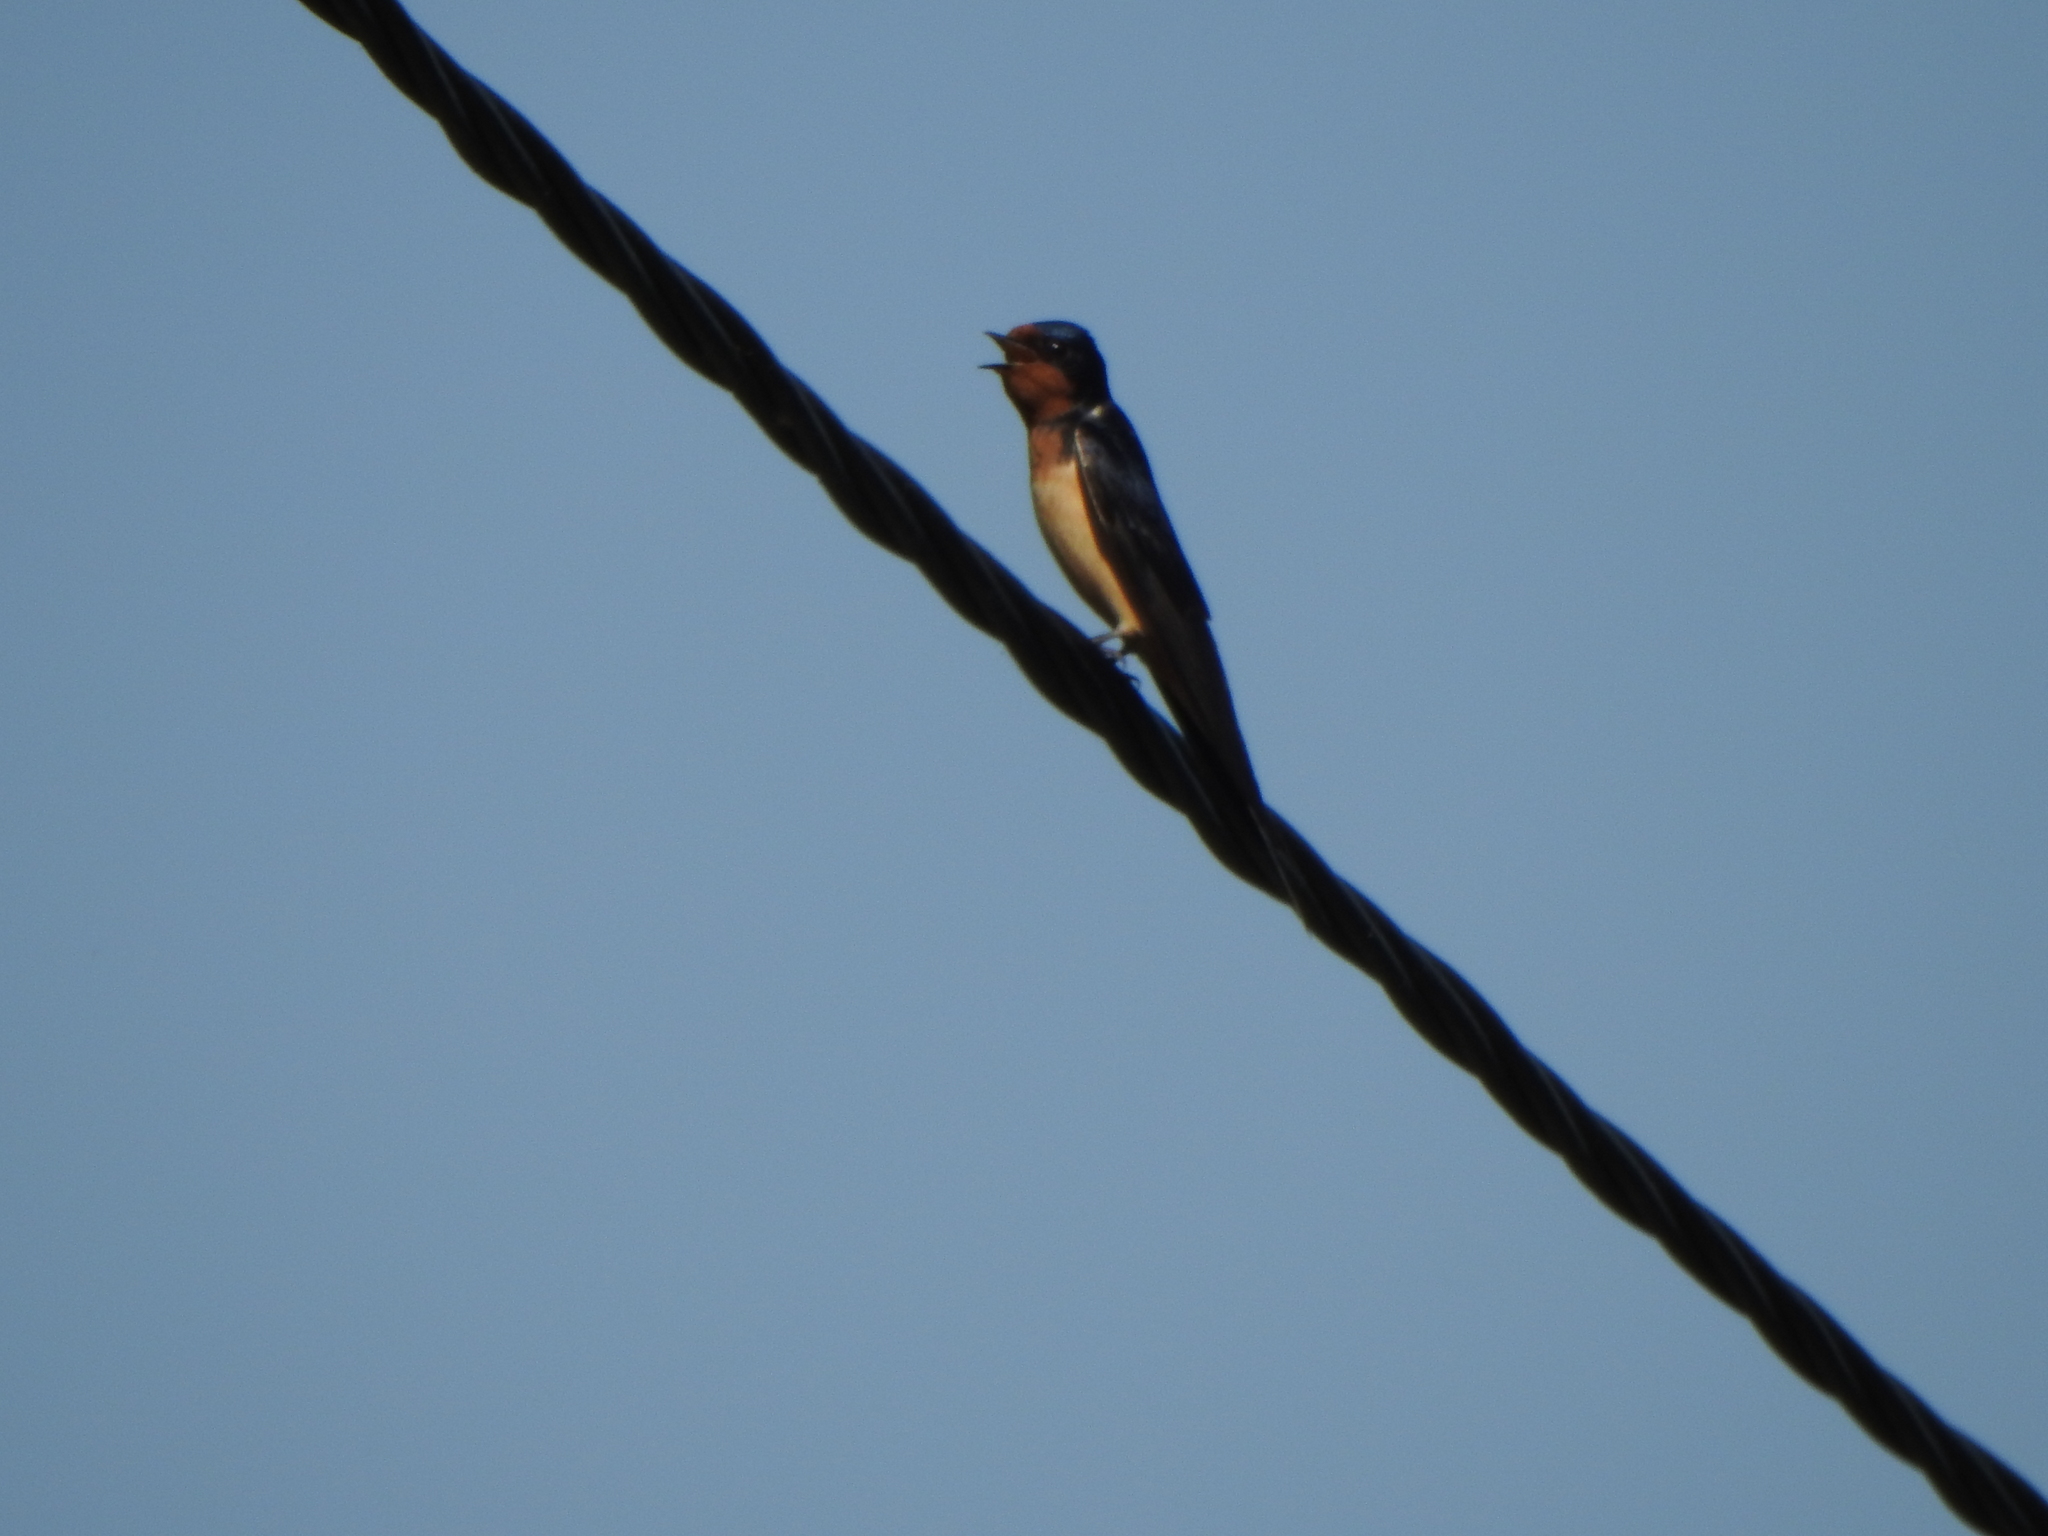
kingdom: Animalia
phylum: Chordata
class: Aves
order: Passeriformes
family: Hirundinidae
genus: Hirundo
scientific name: Hirundo rustica
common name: Barn swallow
